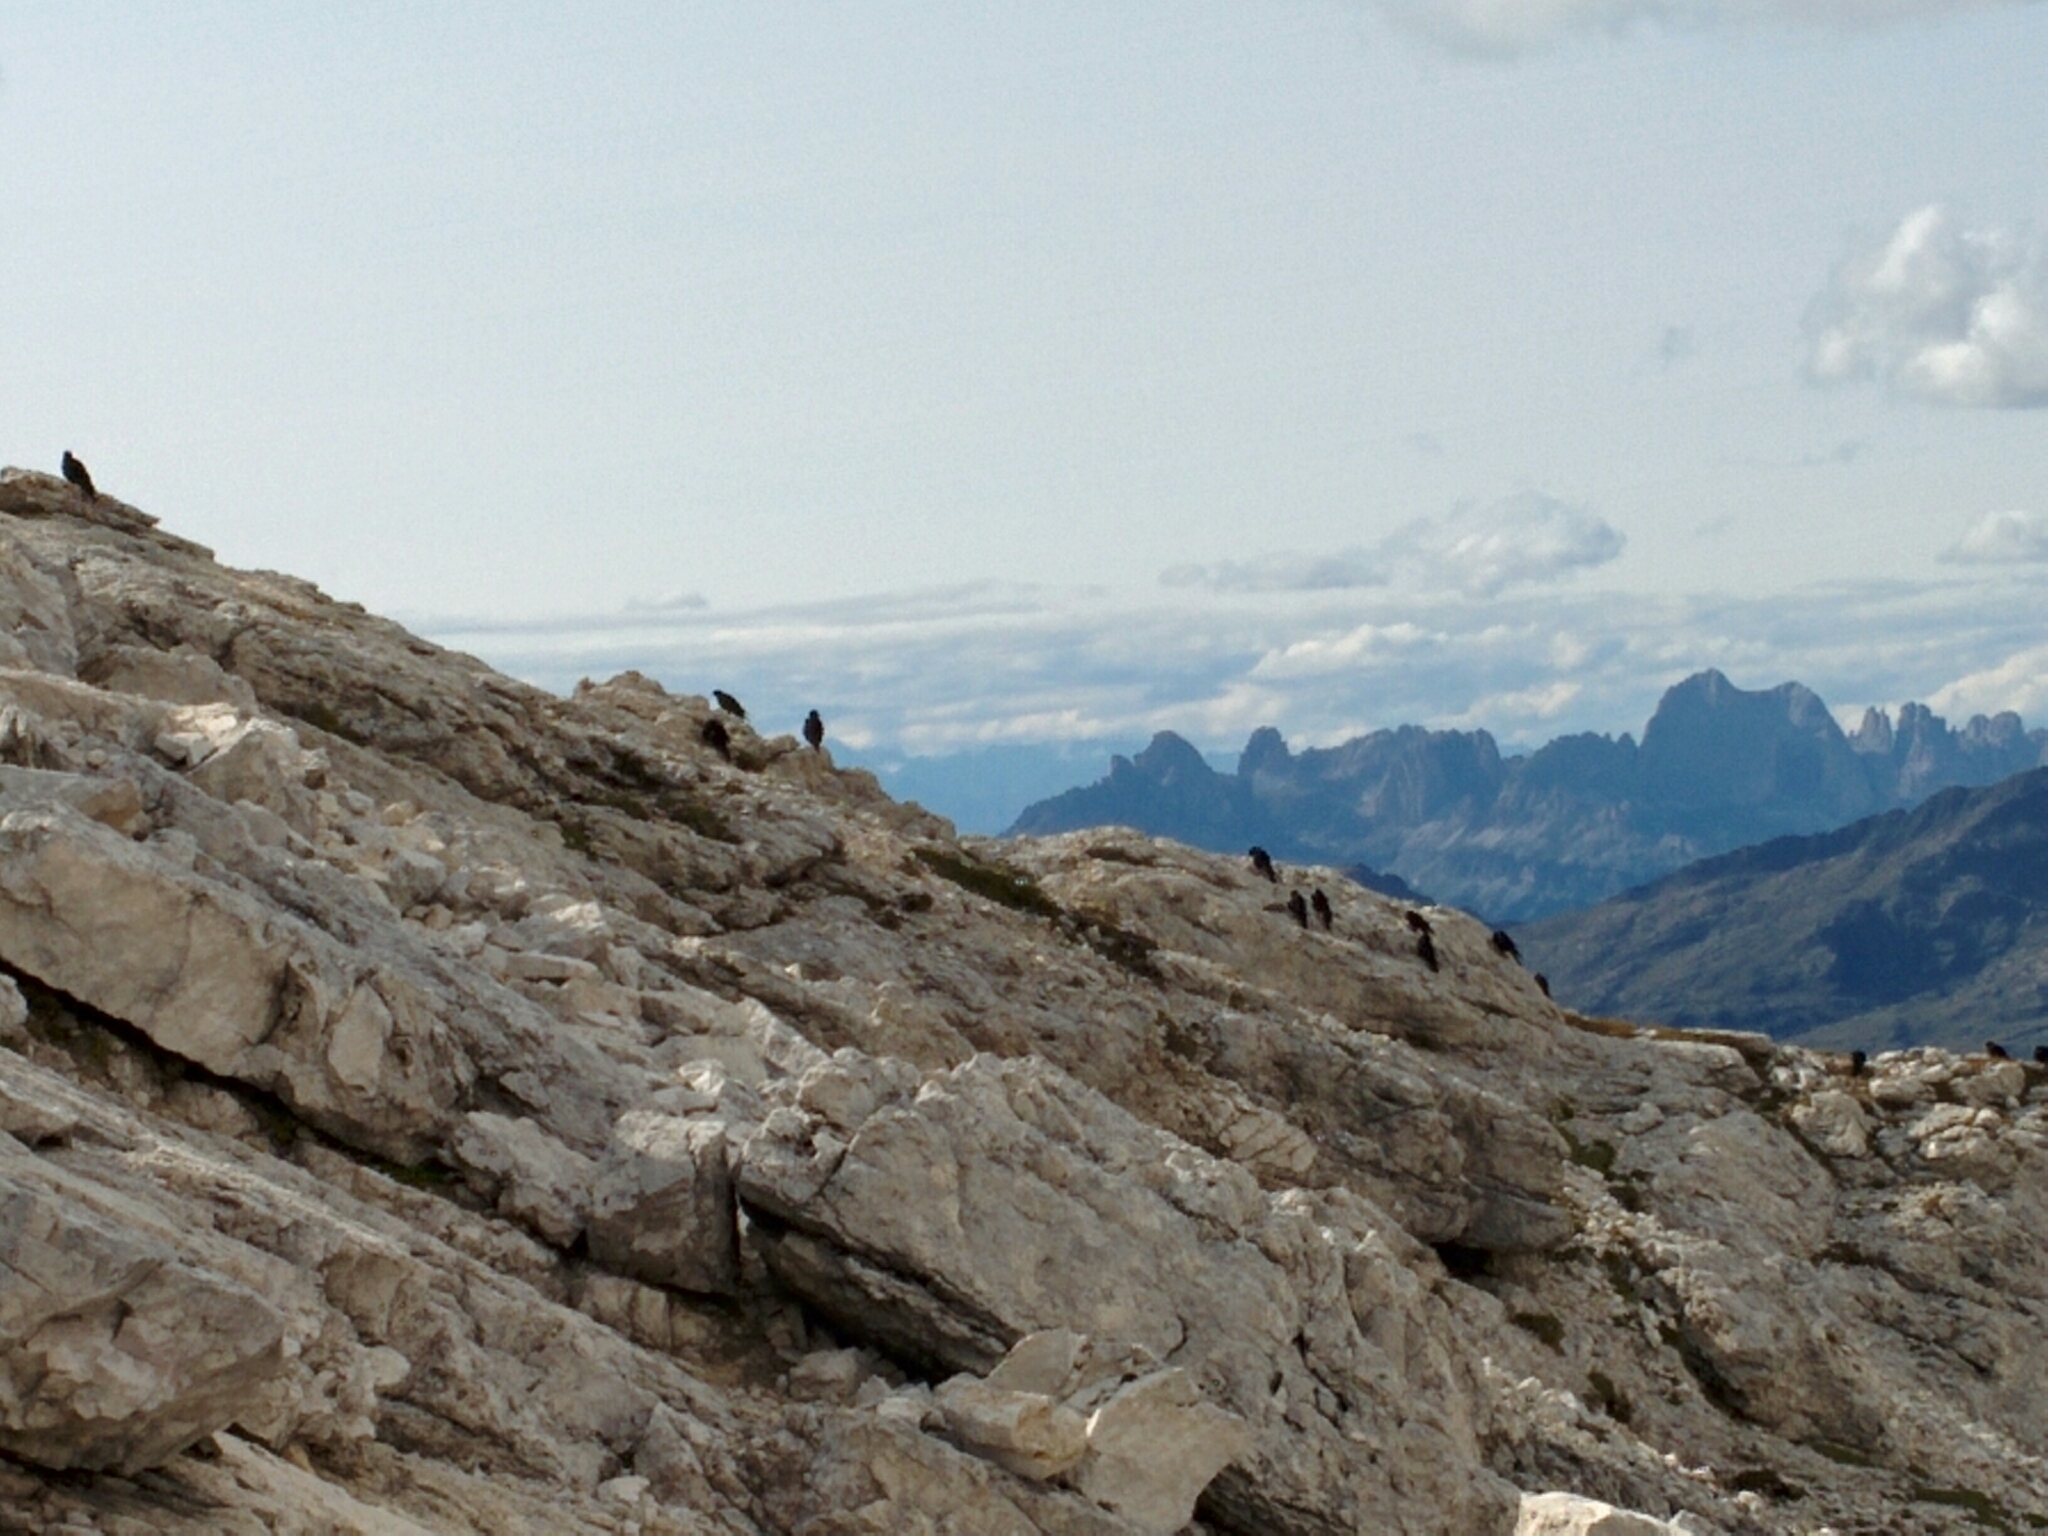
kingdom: Animalia
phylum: Chordata
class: Aves
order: Passeriformes
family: Corvidae
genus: Pyrrhocorax
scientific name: Pyrrhocorax graculus
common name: Alpine chough
